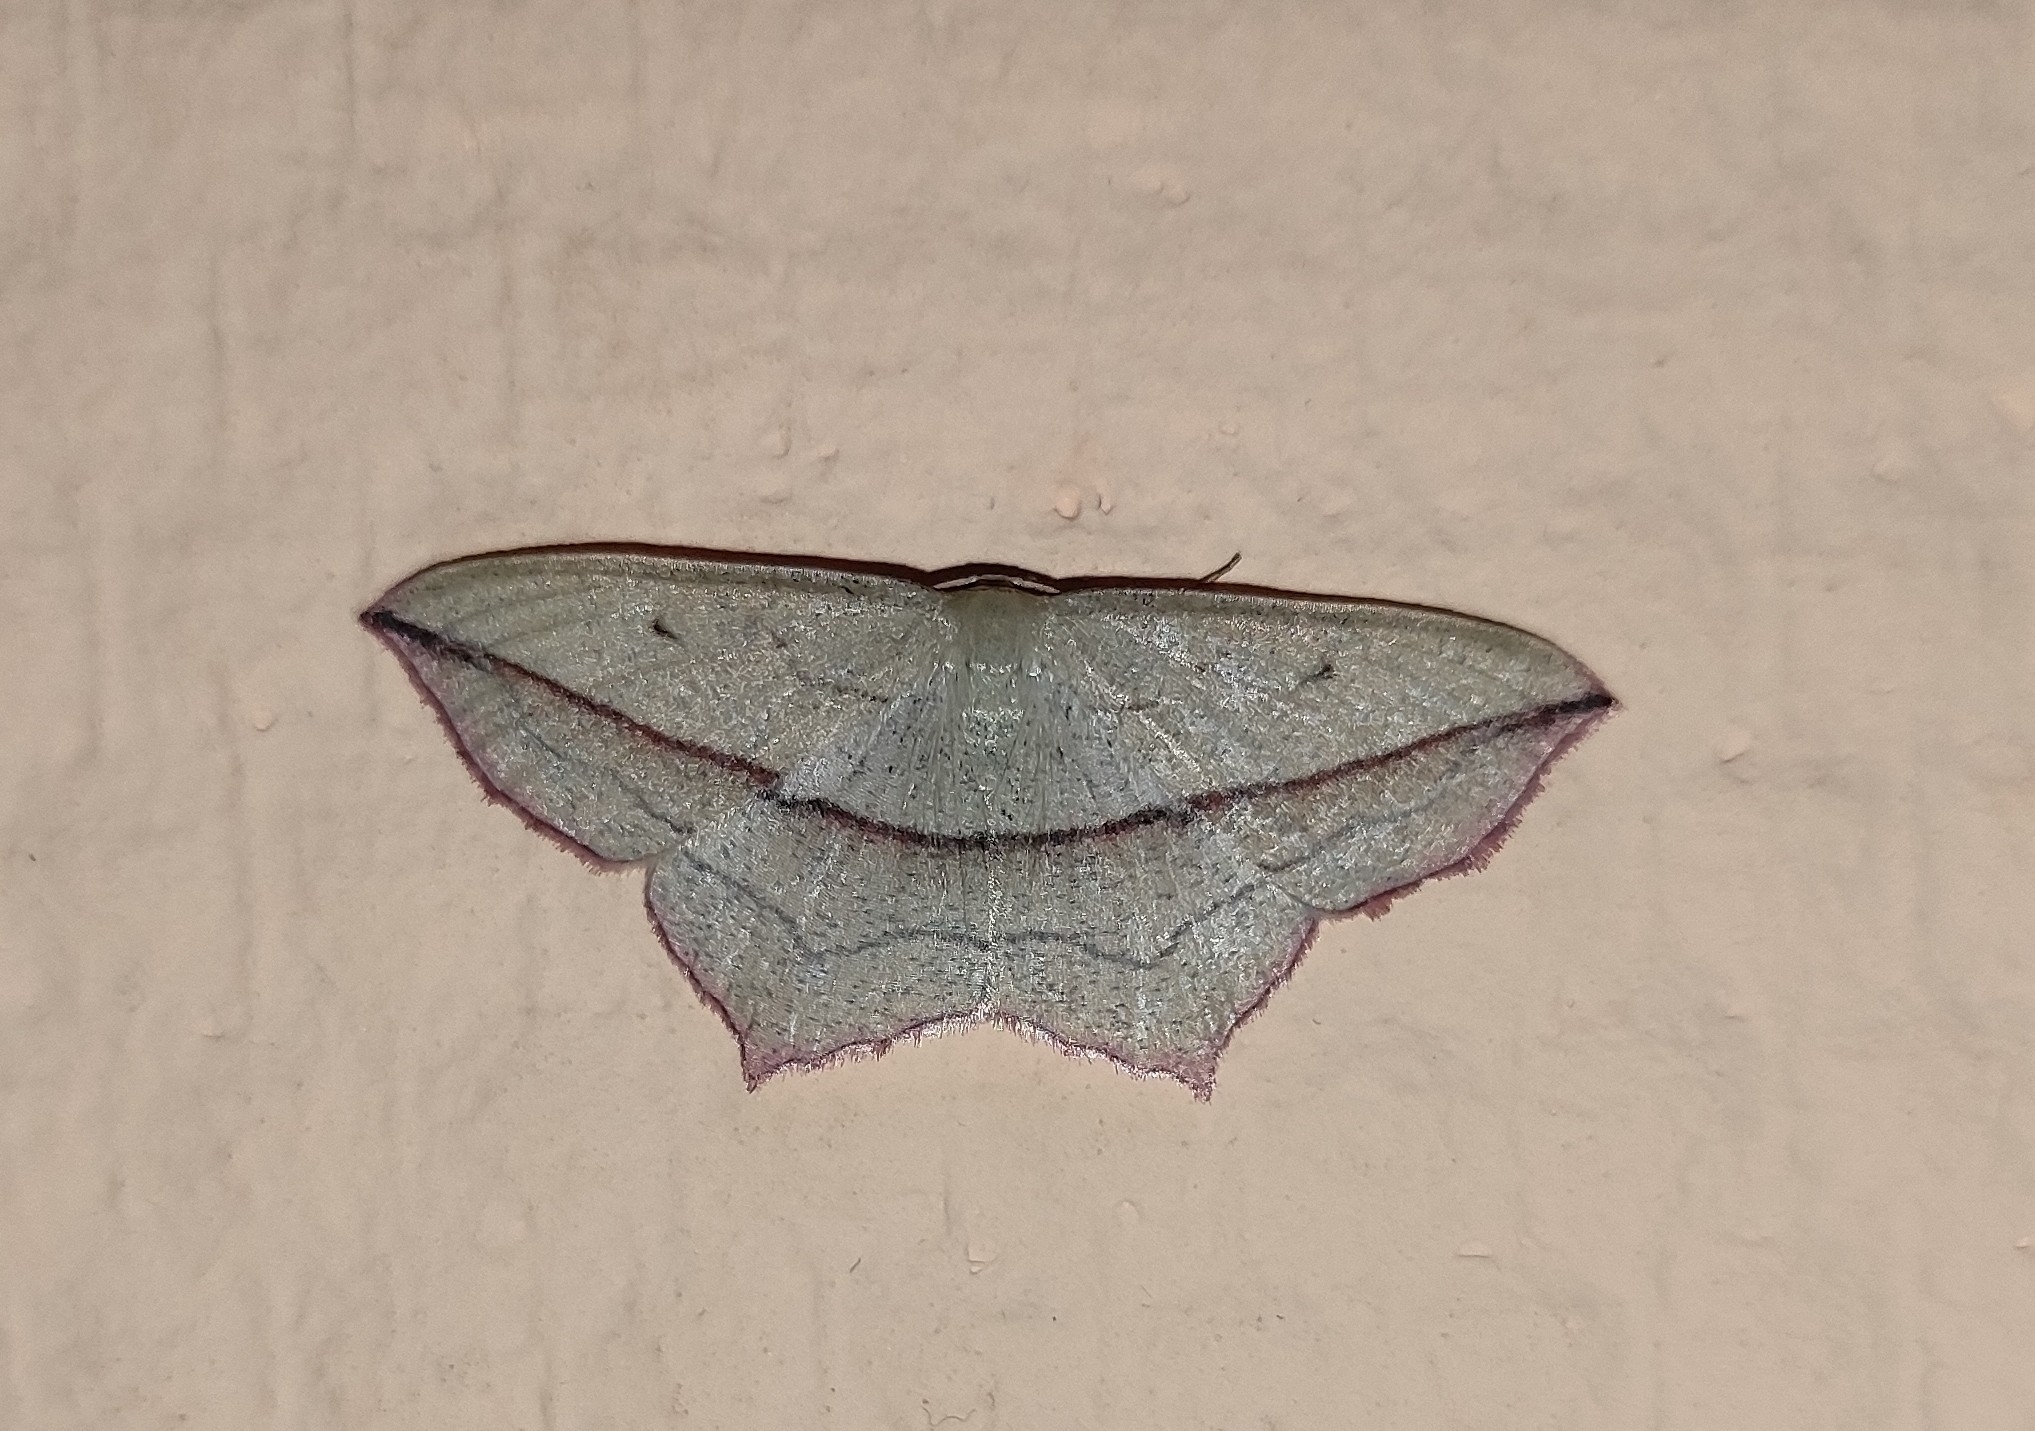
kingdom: Animalia
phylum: Arthropoda
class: Insecta
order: Lepidoptera
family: Geometridae
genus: Timandra
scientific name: Timandra comae
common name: Blood-vein
